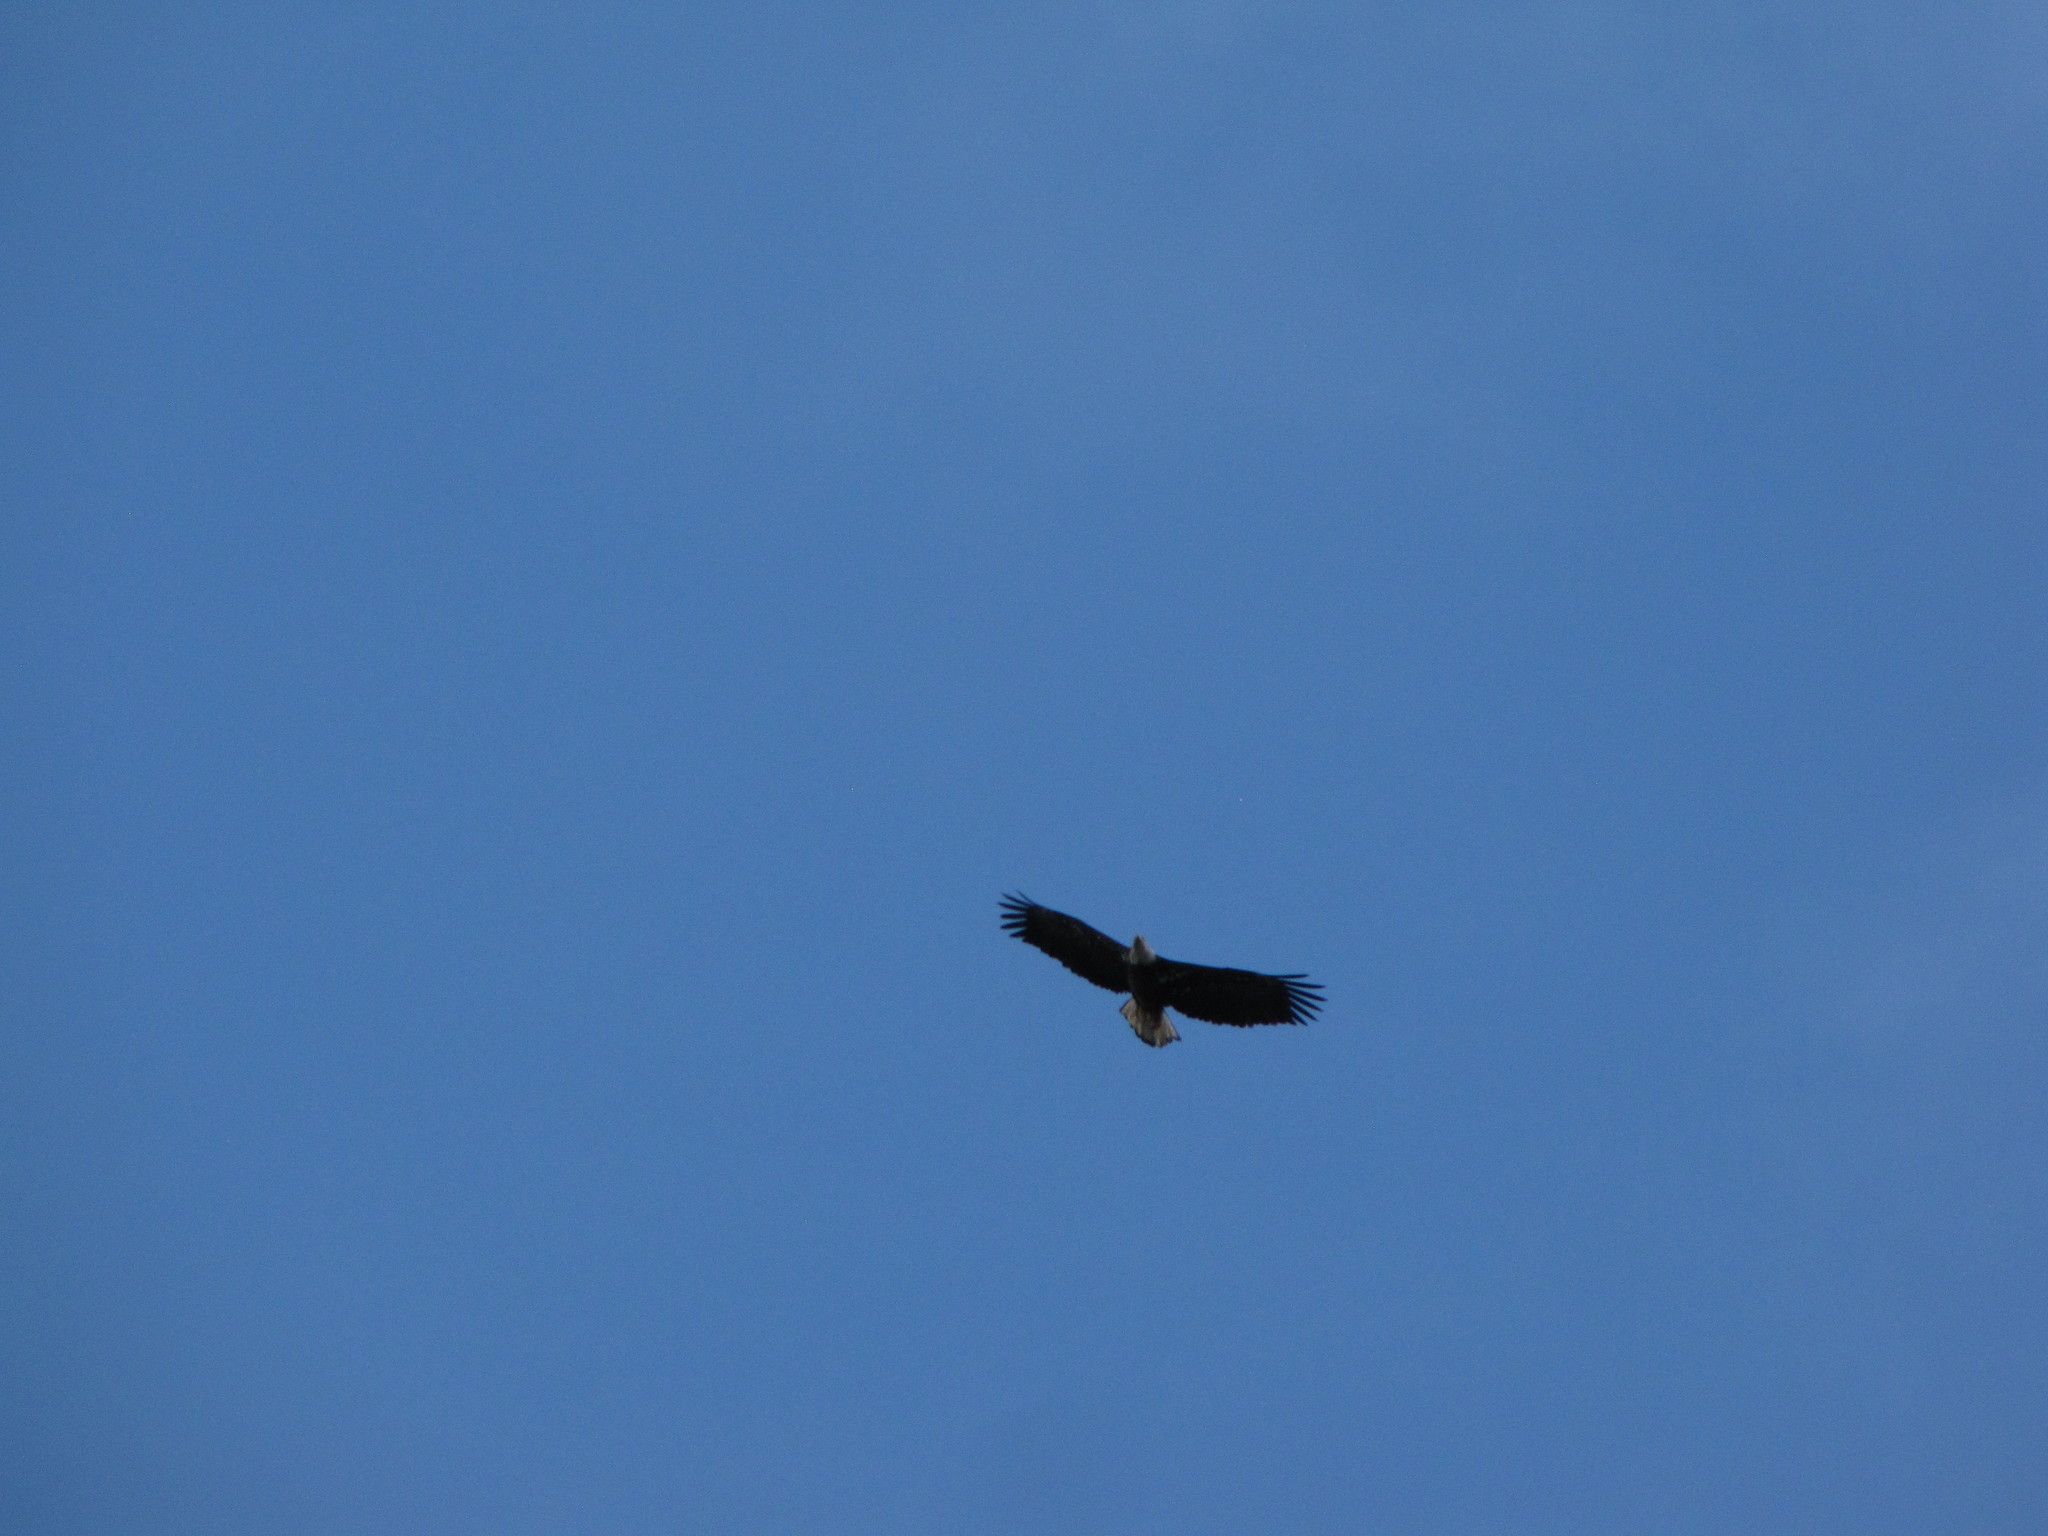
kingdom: Animalia
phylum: Chordata
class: Aves
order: Accipitriformes
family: Accipitridae
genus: Haliaeetus
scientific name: Haliaeetus leucocephalus
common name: Bald eagle
